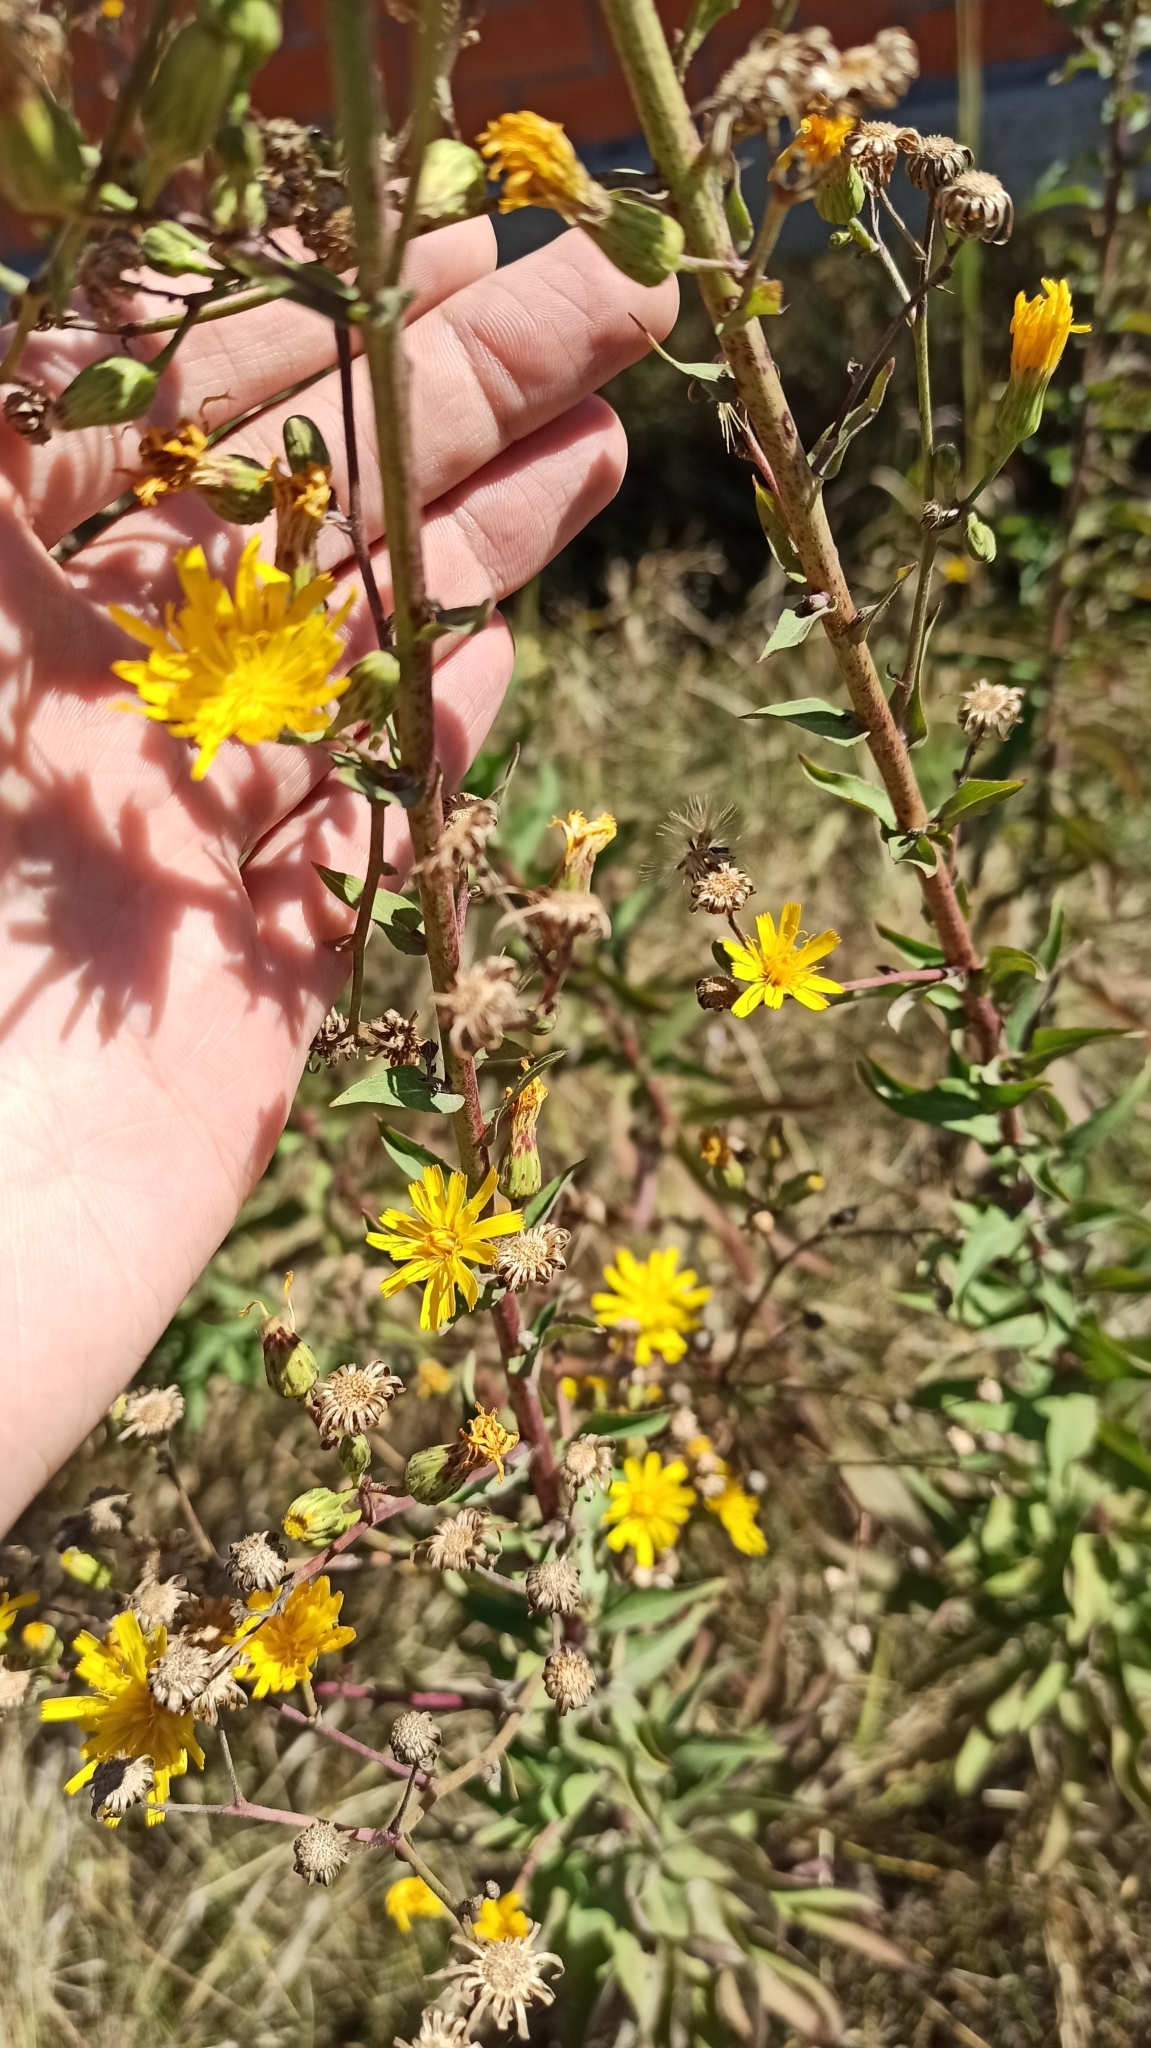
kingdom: Plantae
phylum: Tracheophyta
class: Magnoliopsida
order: Asterales
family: Asteraceae
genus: Hieracium
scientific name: Hieracium virosum
